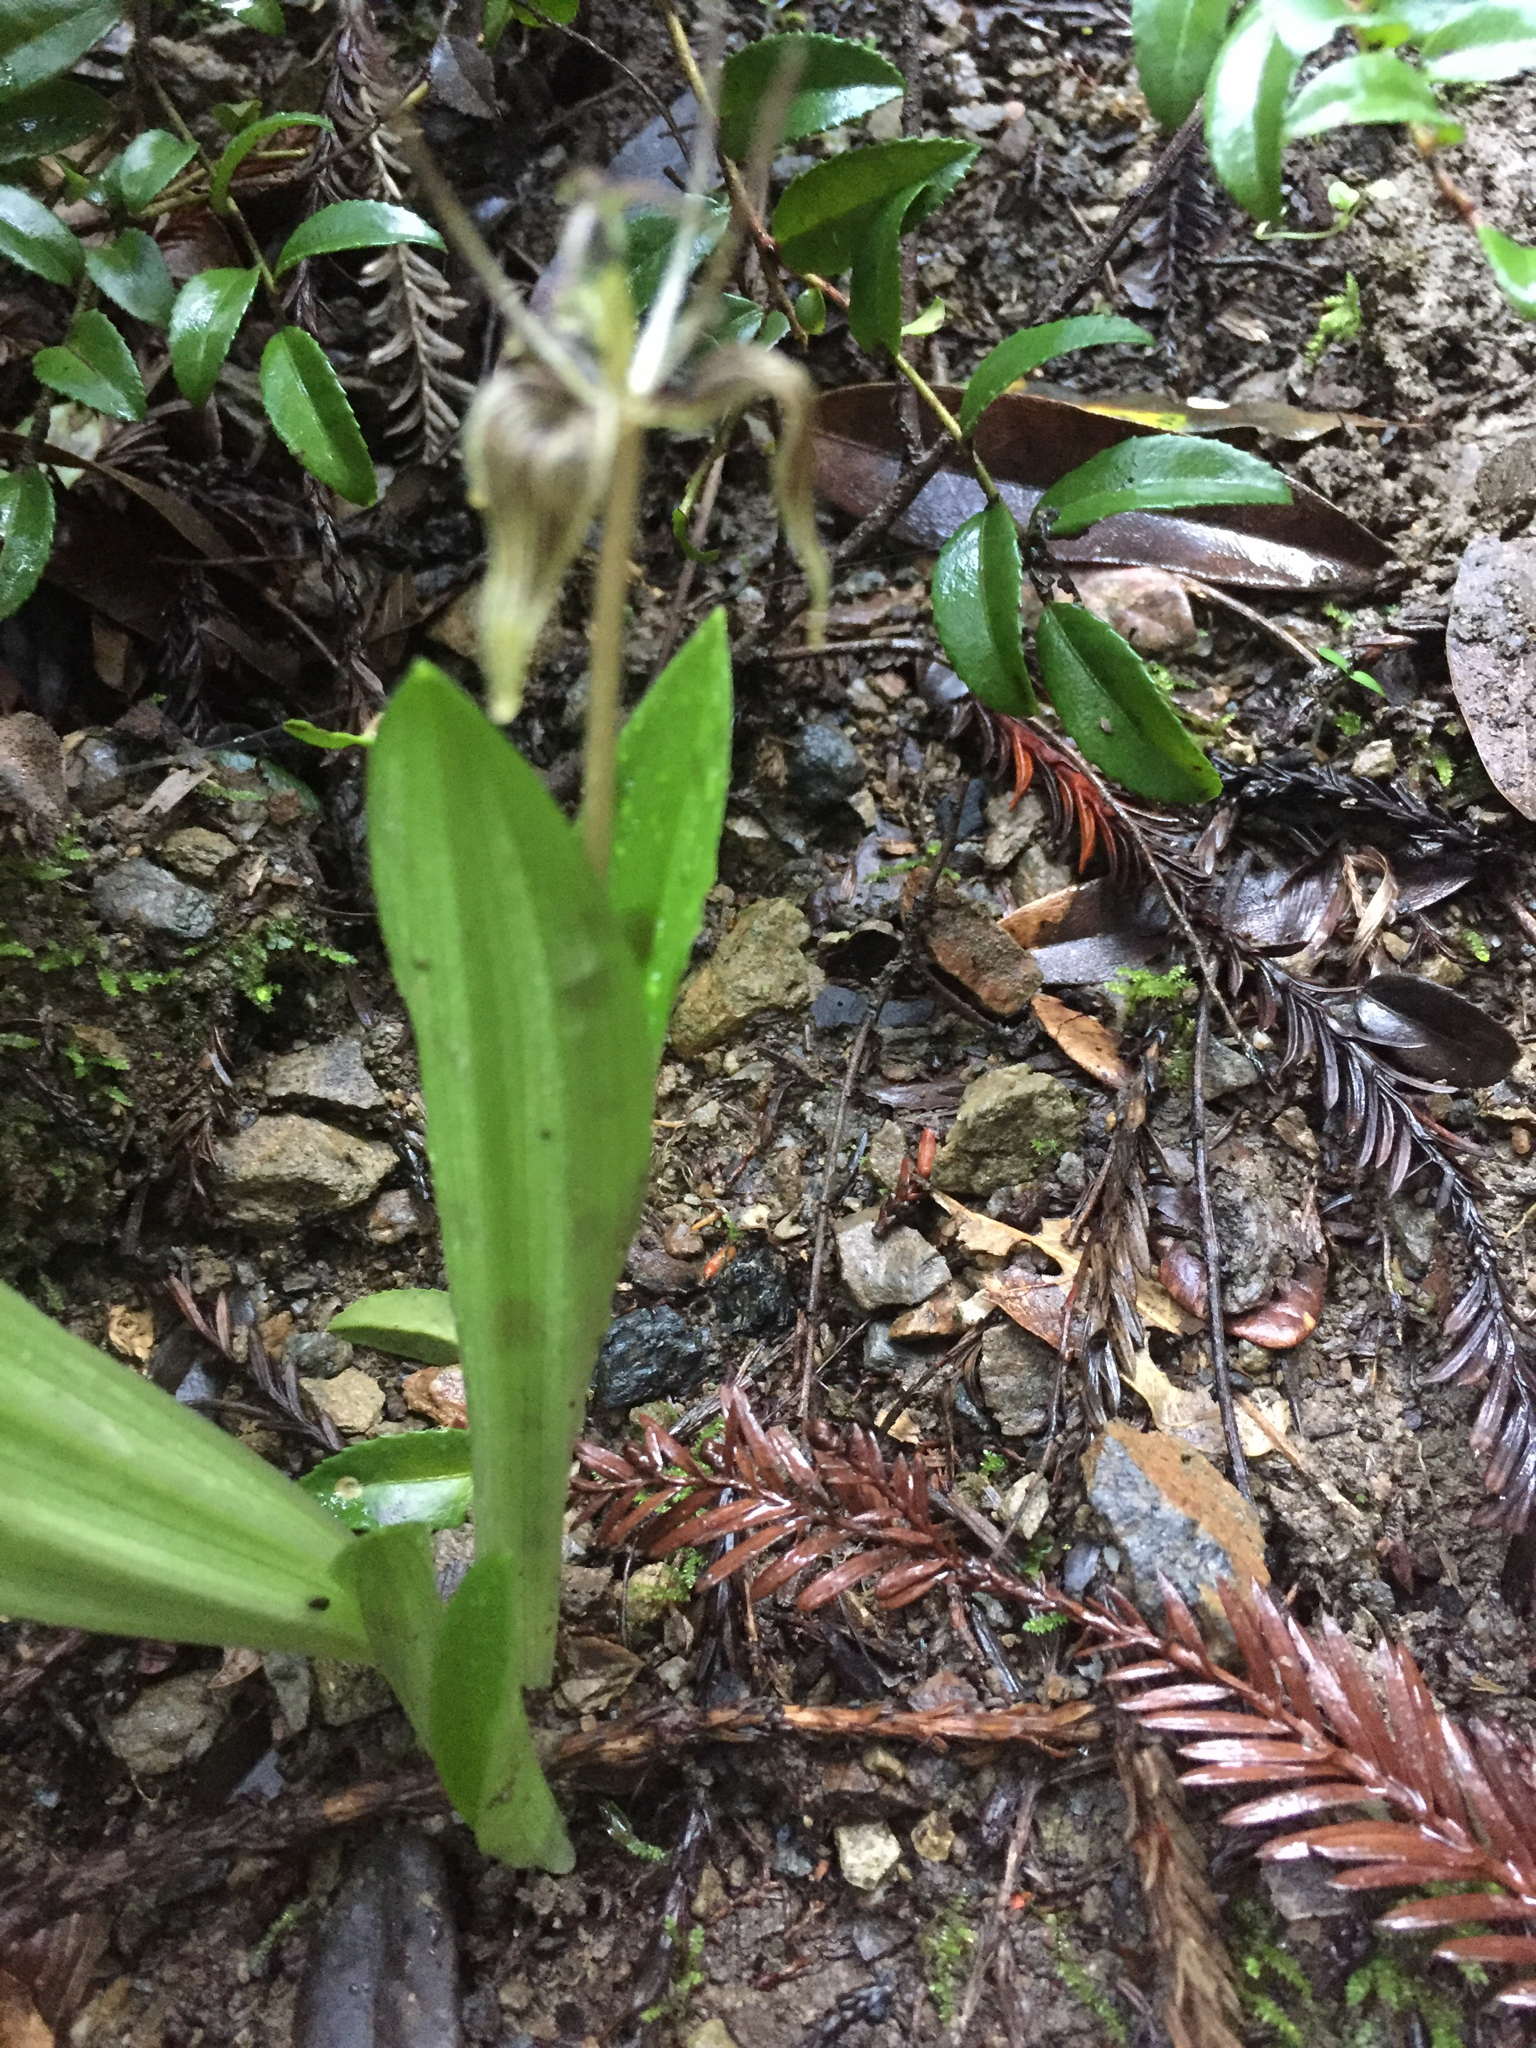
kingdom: Plantae
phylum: Tracheophyta
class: Liliopsida
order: Liliales
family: Liliaceae
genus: Scoliopus
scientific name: Scoliopus bigelovii
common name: Foetid adder's-tongue
